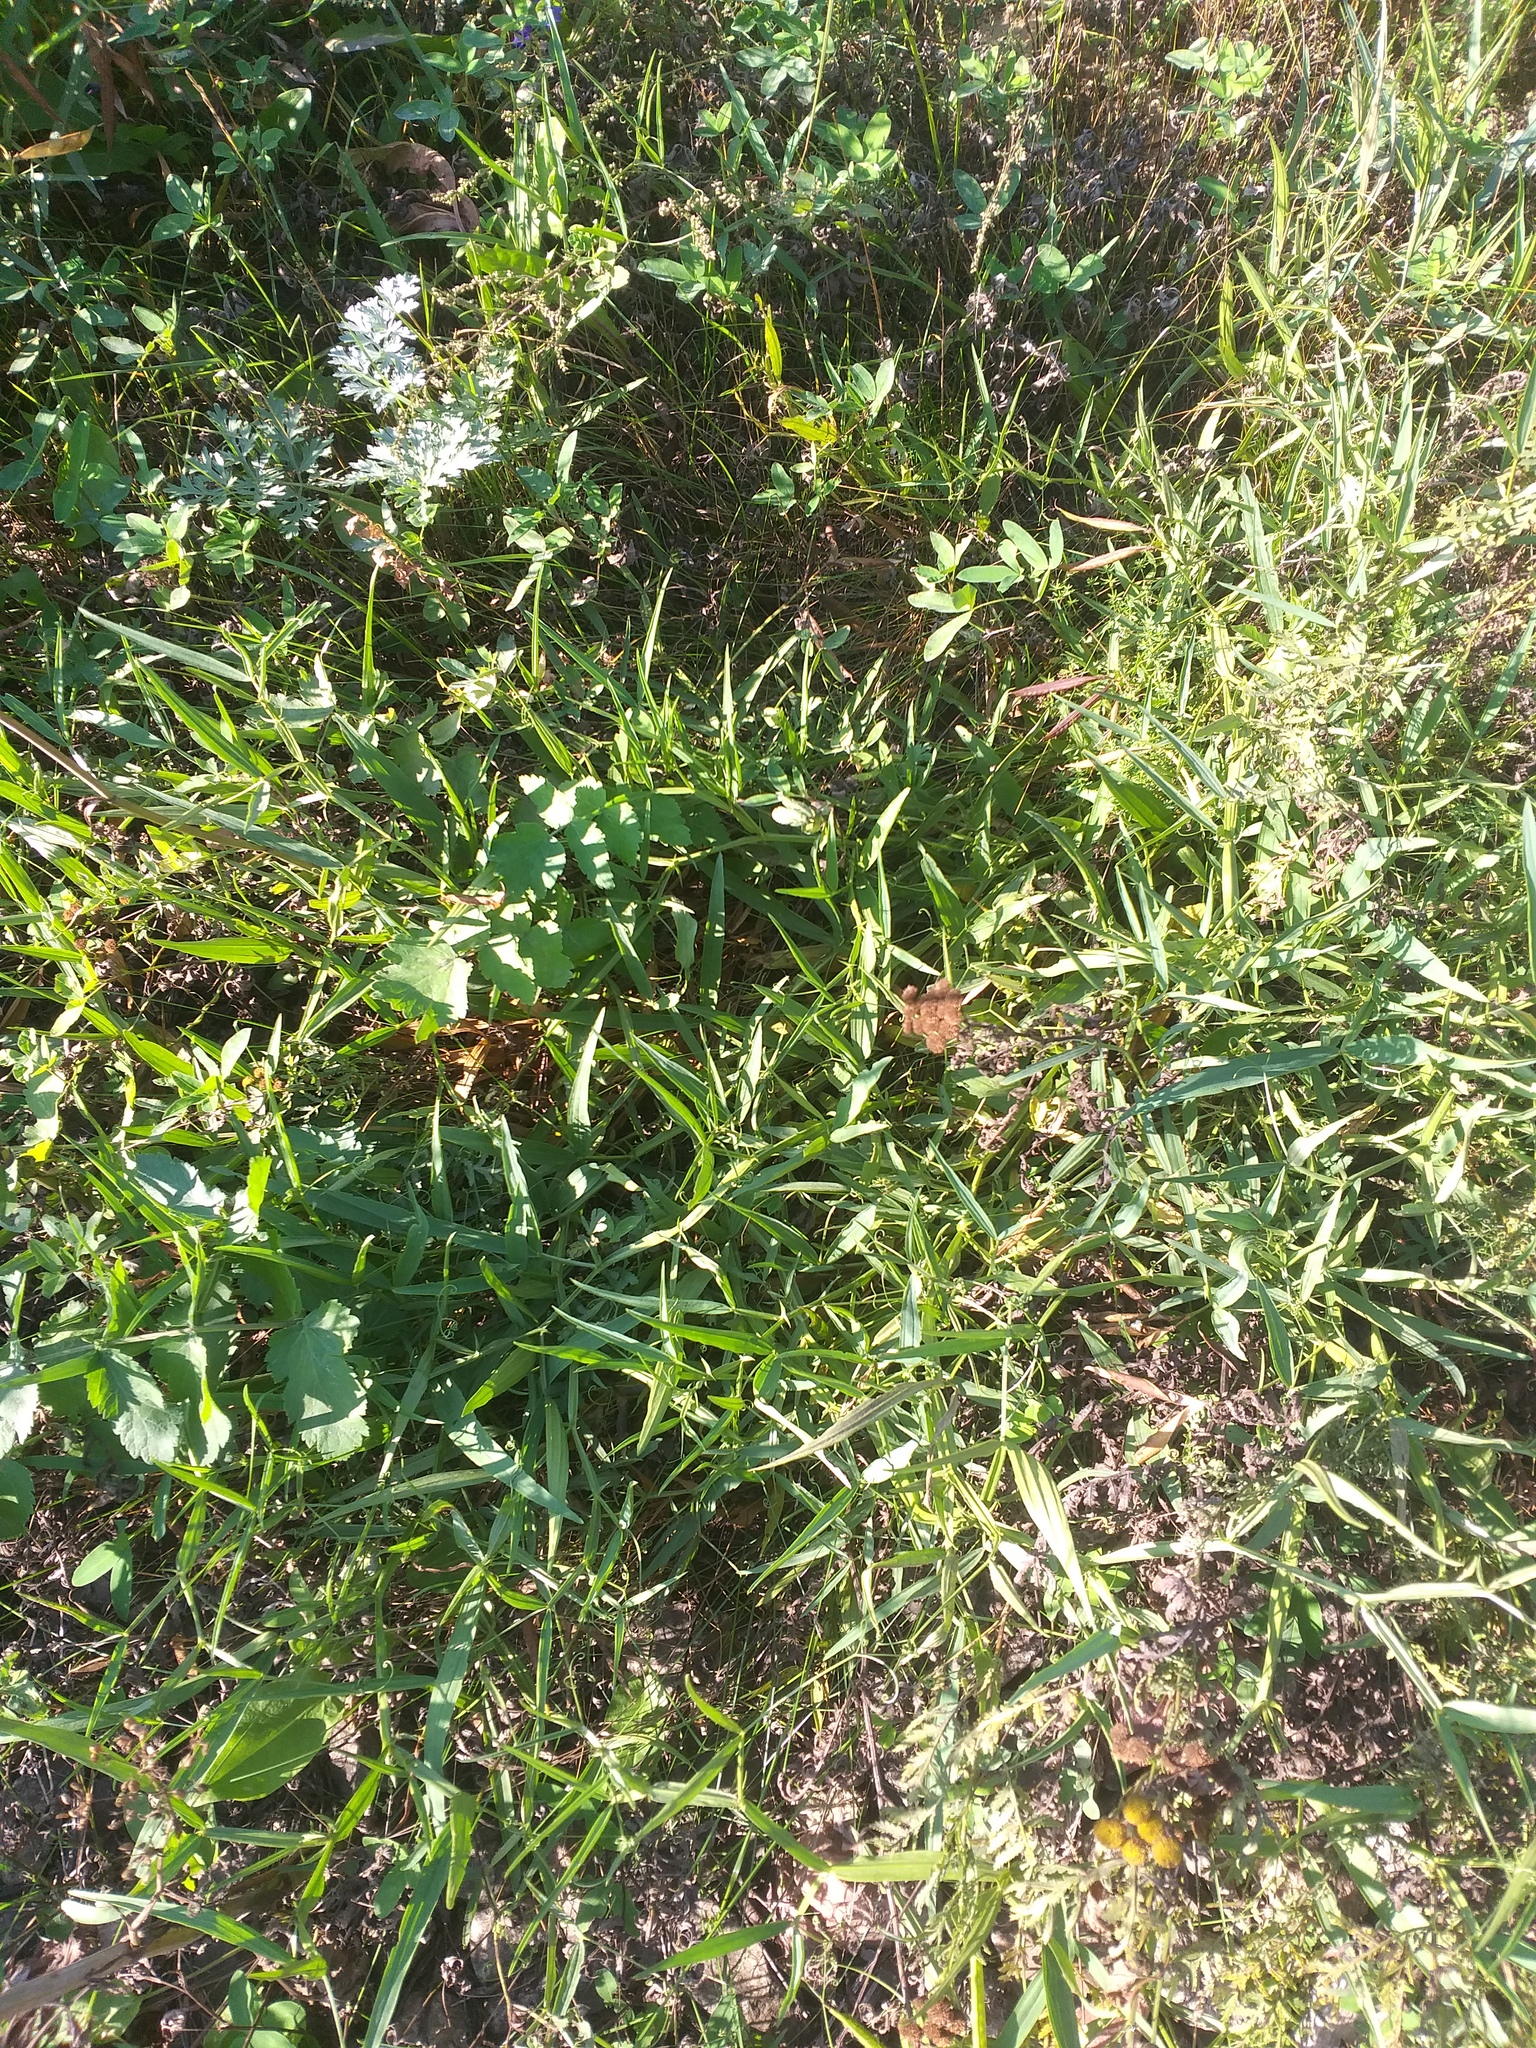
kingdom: Plantae
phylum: Tracheophyta
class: Magnoliopsida
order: Fabales
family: Fabaceae
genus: Lathyrus
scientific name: Lathyrus sylvestris
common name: Flat pea
